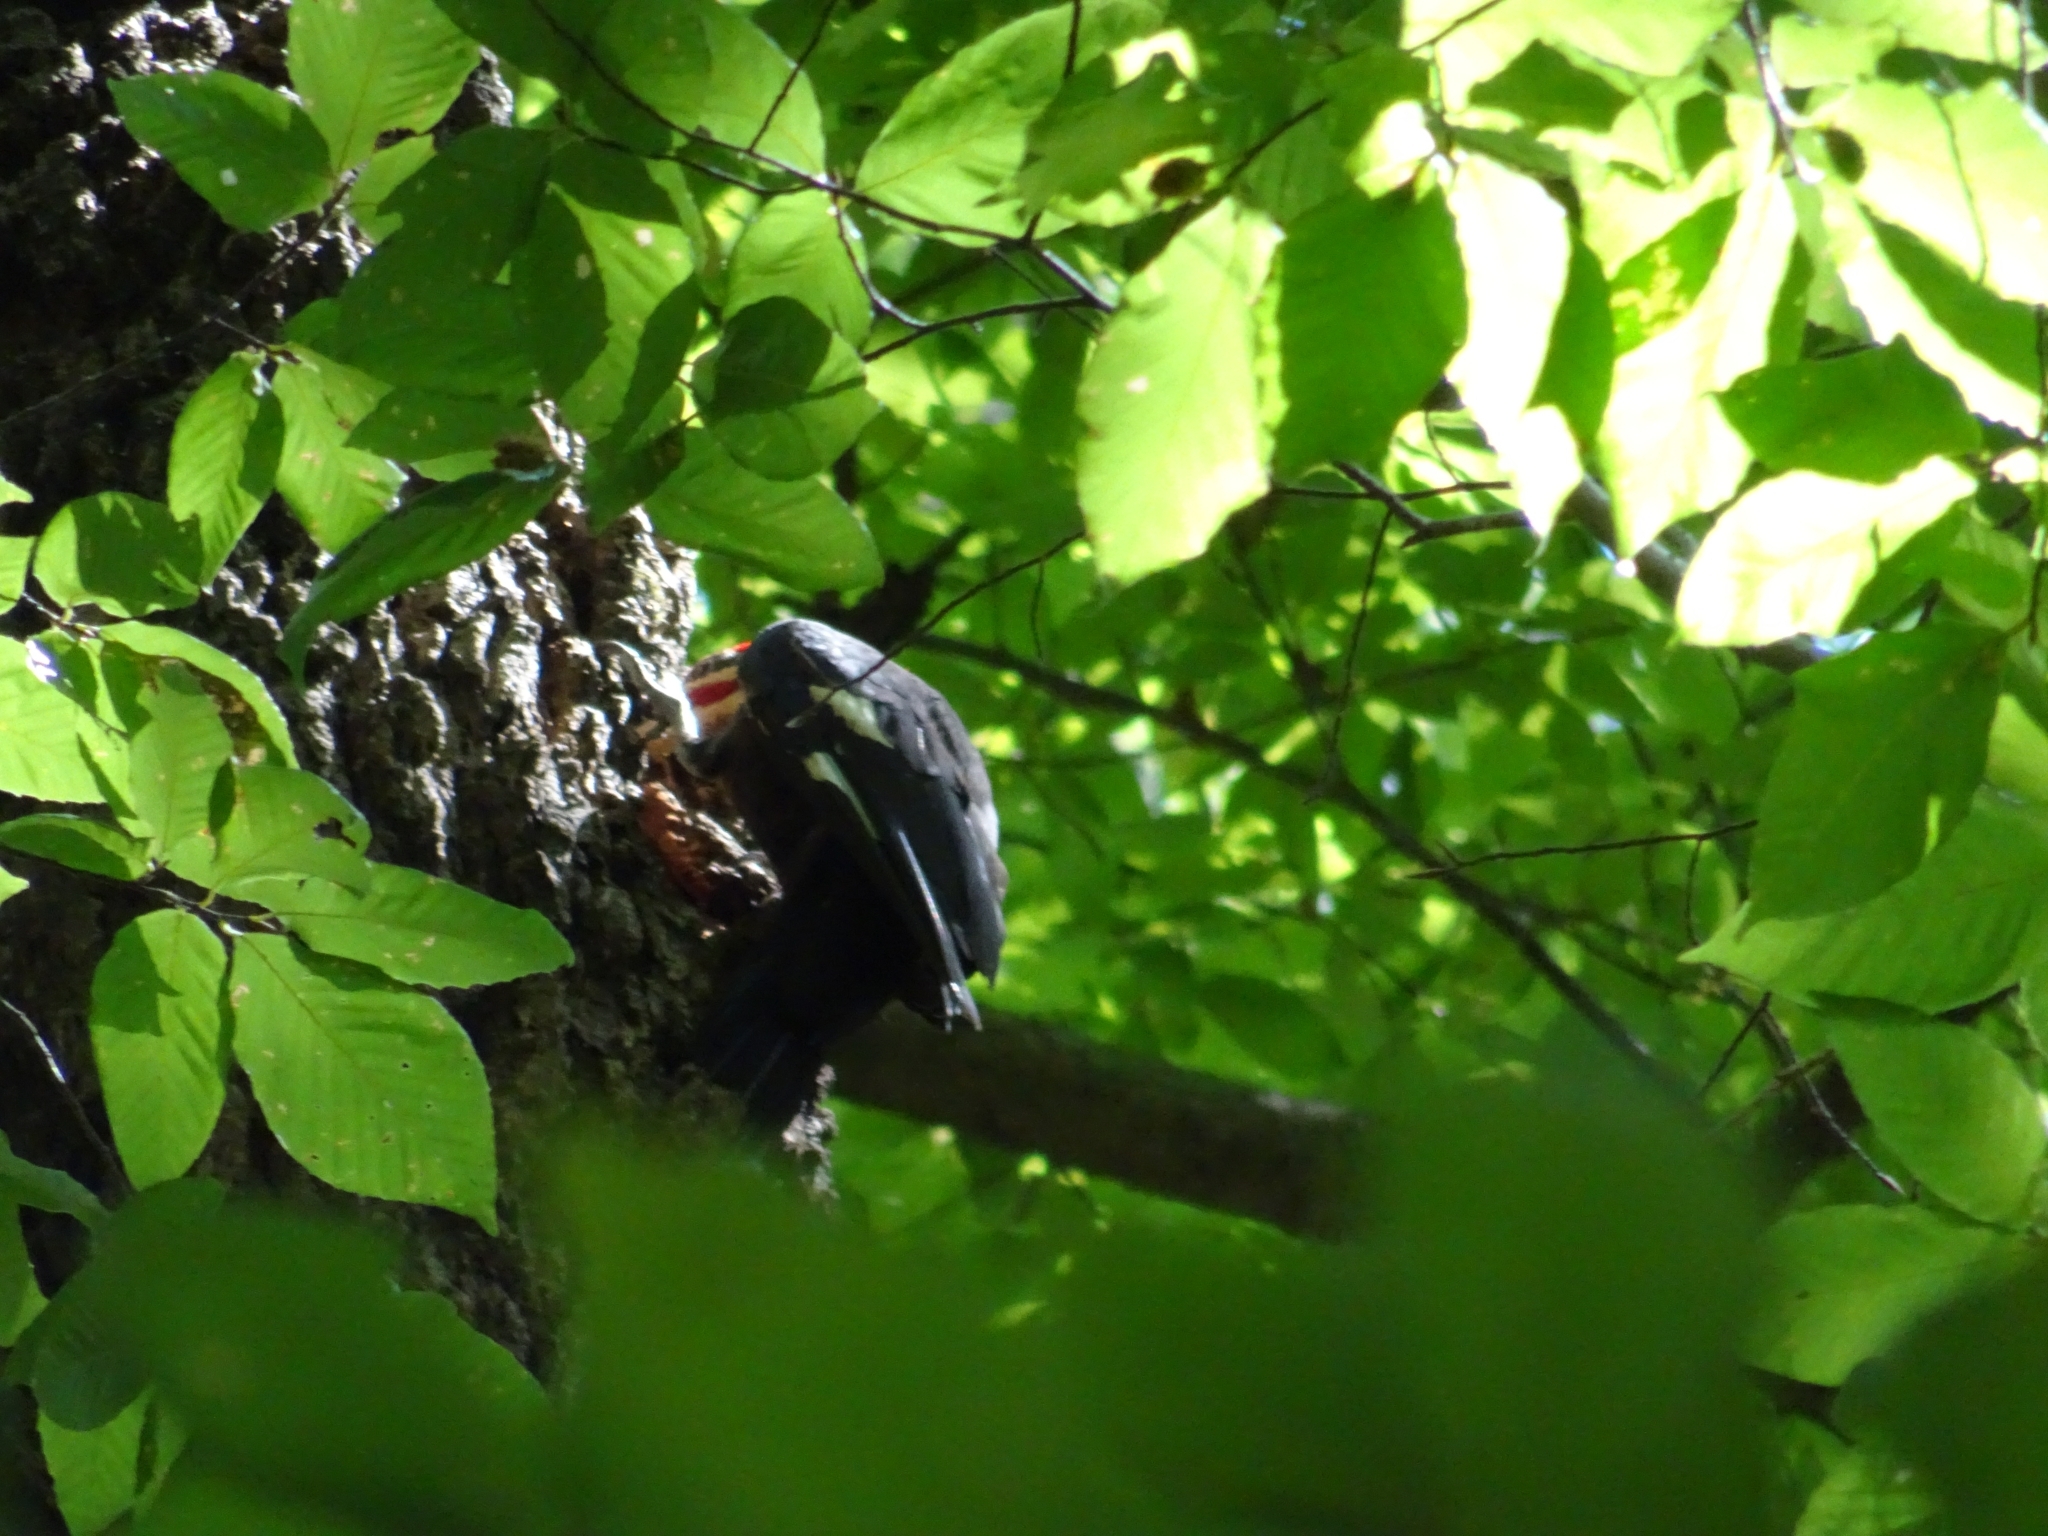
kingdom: Animalia
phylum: Chordata
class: Aves
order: Piciformes
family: Picidae
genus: Dryocopus
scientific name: Dryocopus pileatus
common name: Pileated woodpecker
